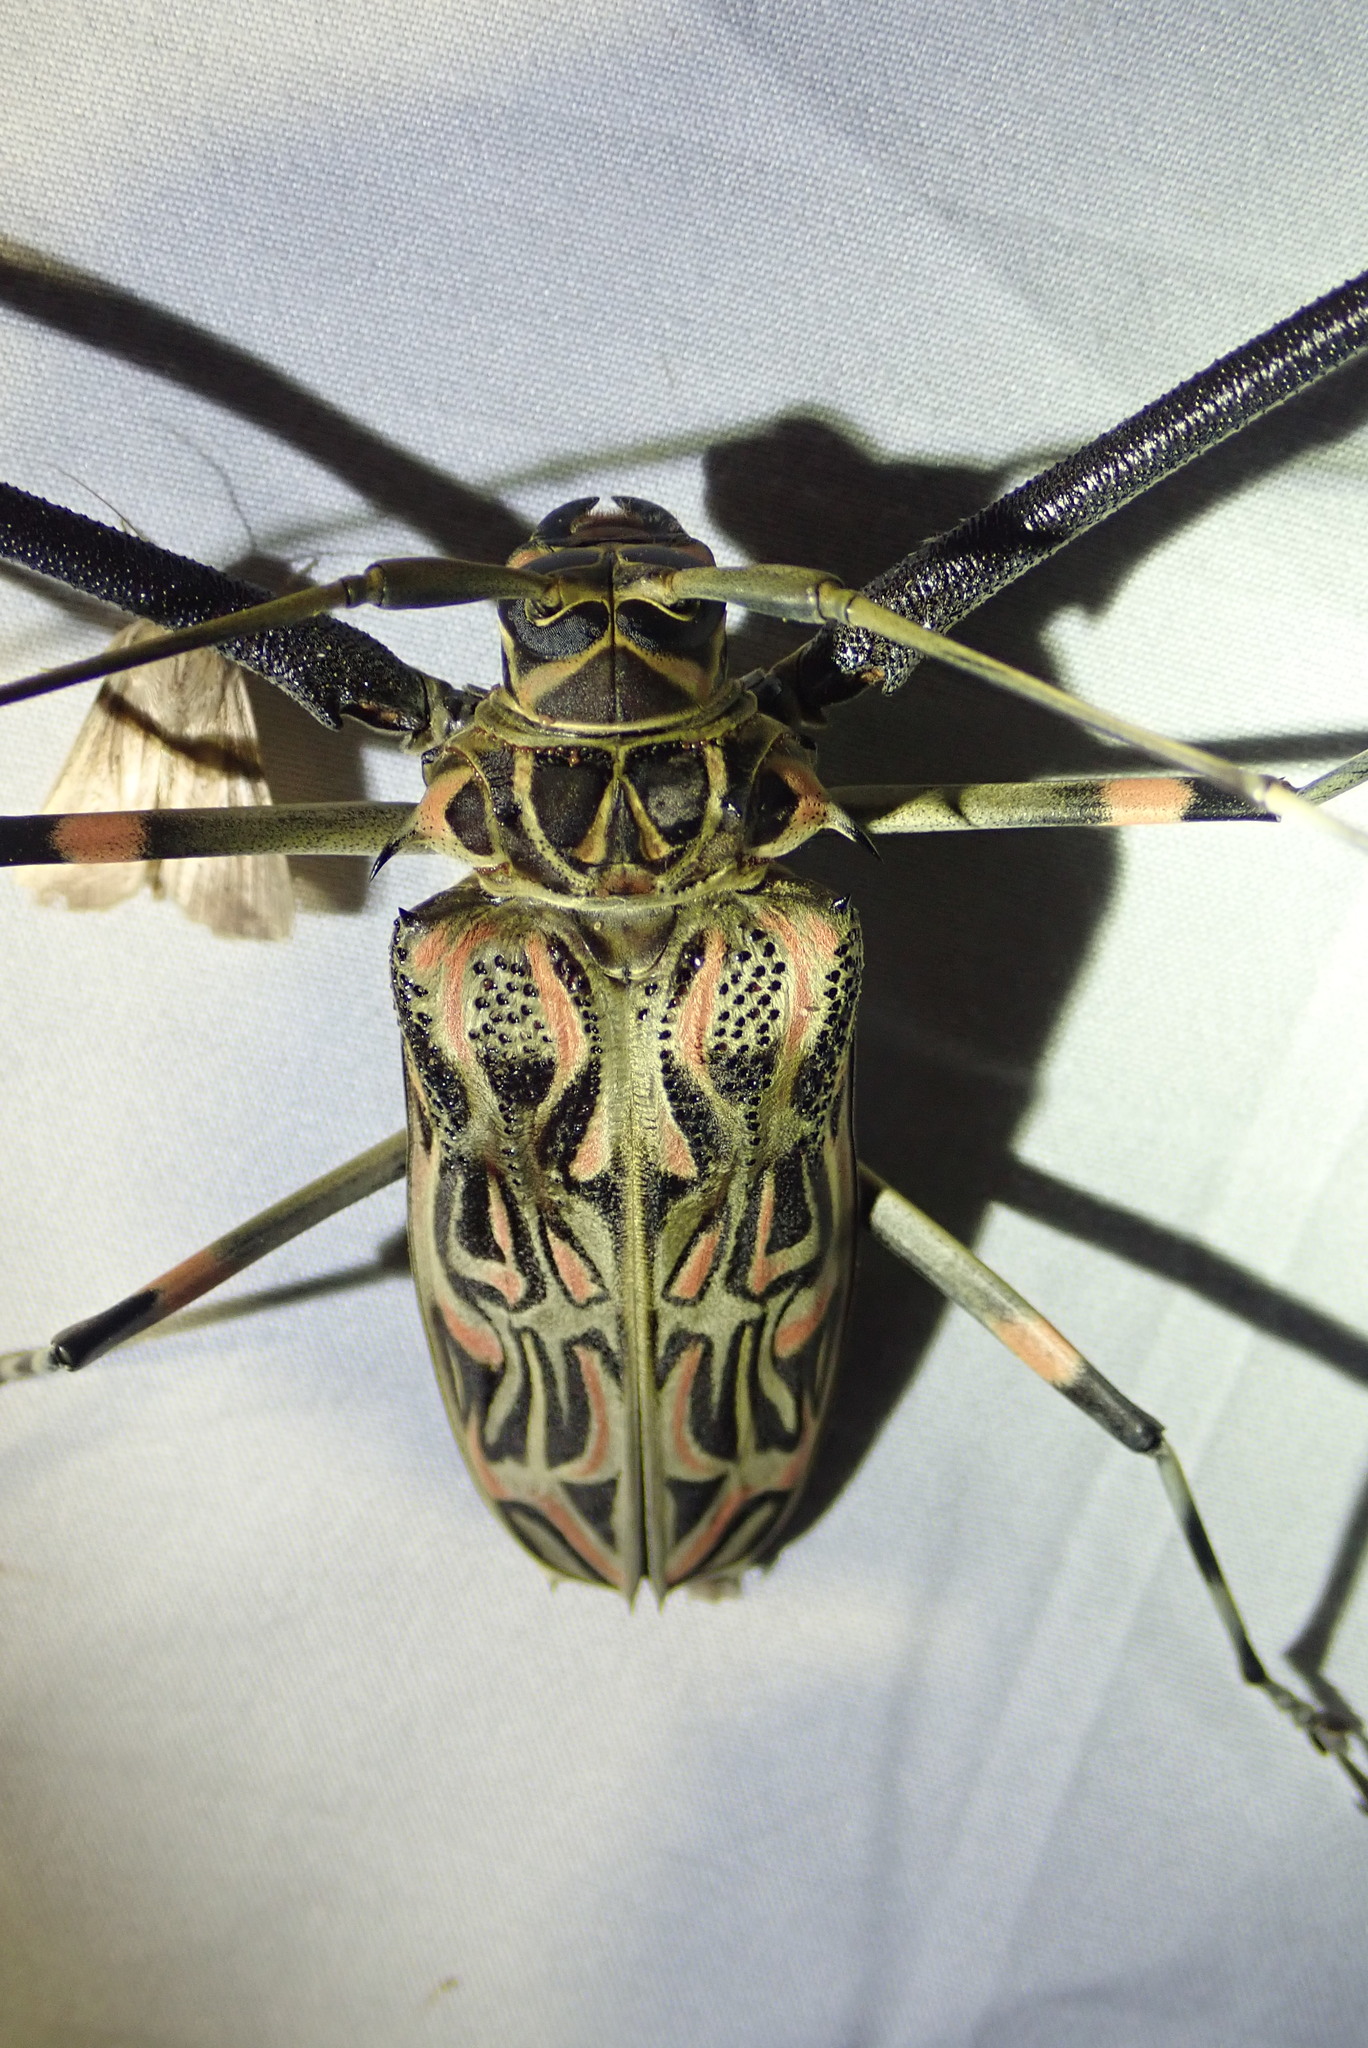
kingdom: Animalia
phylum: Arthropoda
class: Insecta
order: Coleoptera
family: Cerambycidae
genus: Acrocinus
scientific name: Acrocinus longimanus
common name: Arlequin
